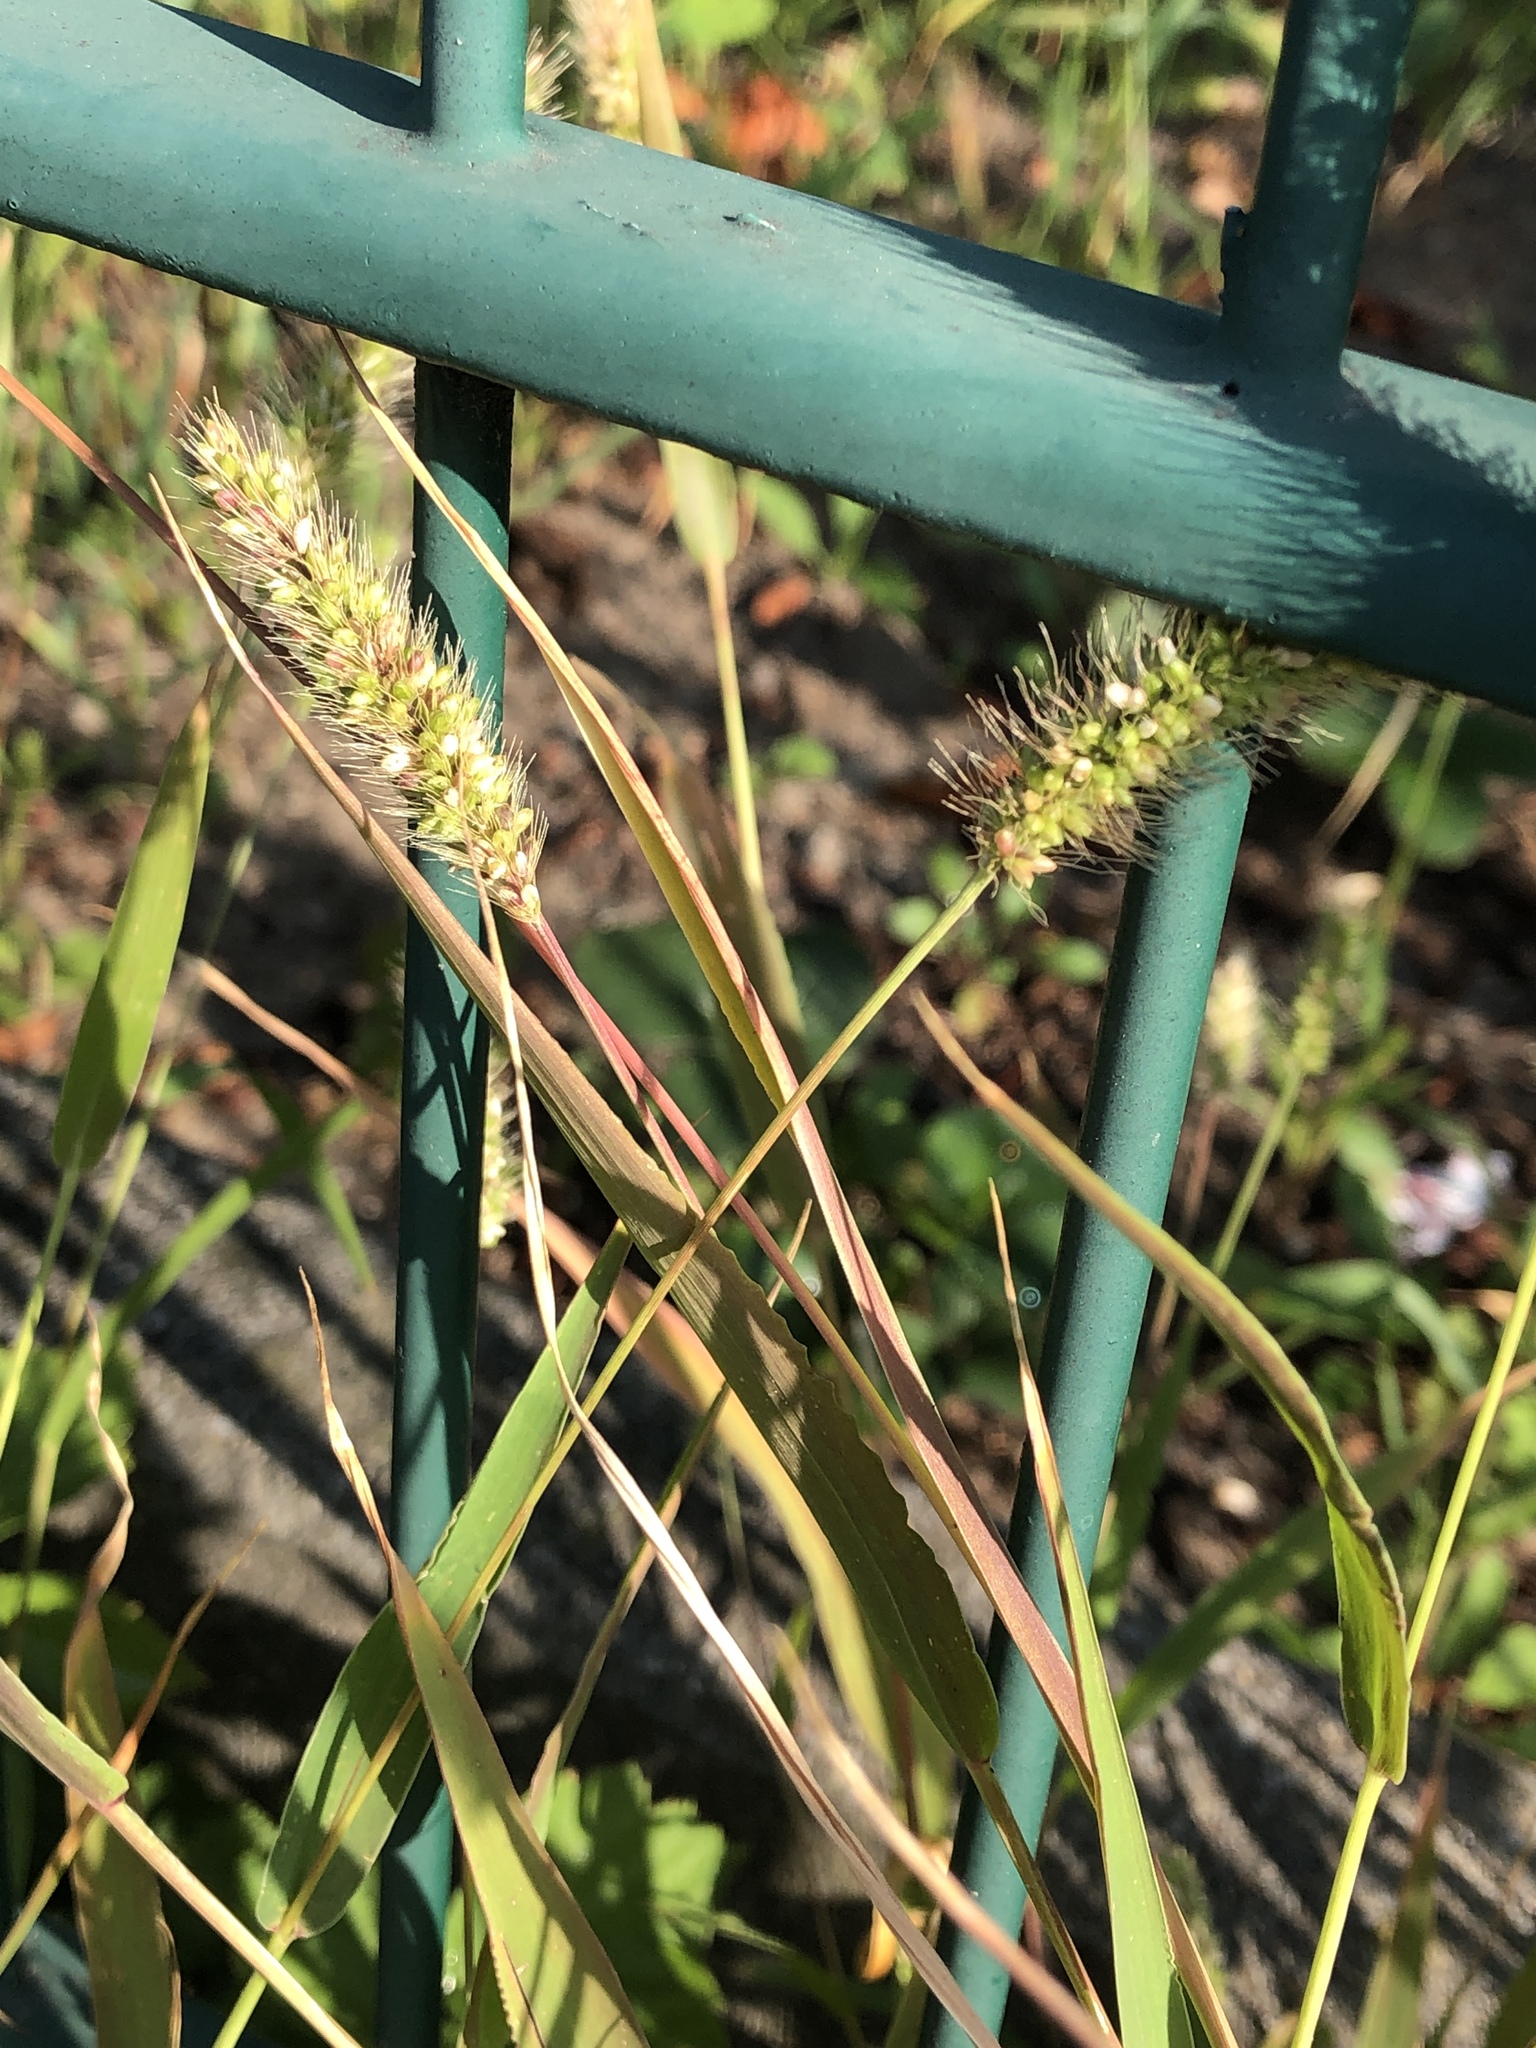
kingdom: Plantae
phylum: Tracheophyta
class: Liliopsida
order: Poales
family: Poaceae
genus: Setaria
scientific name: Setaria viridis
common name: Green bristlegrass
